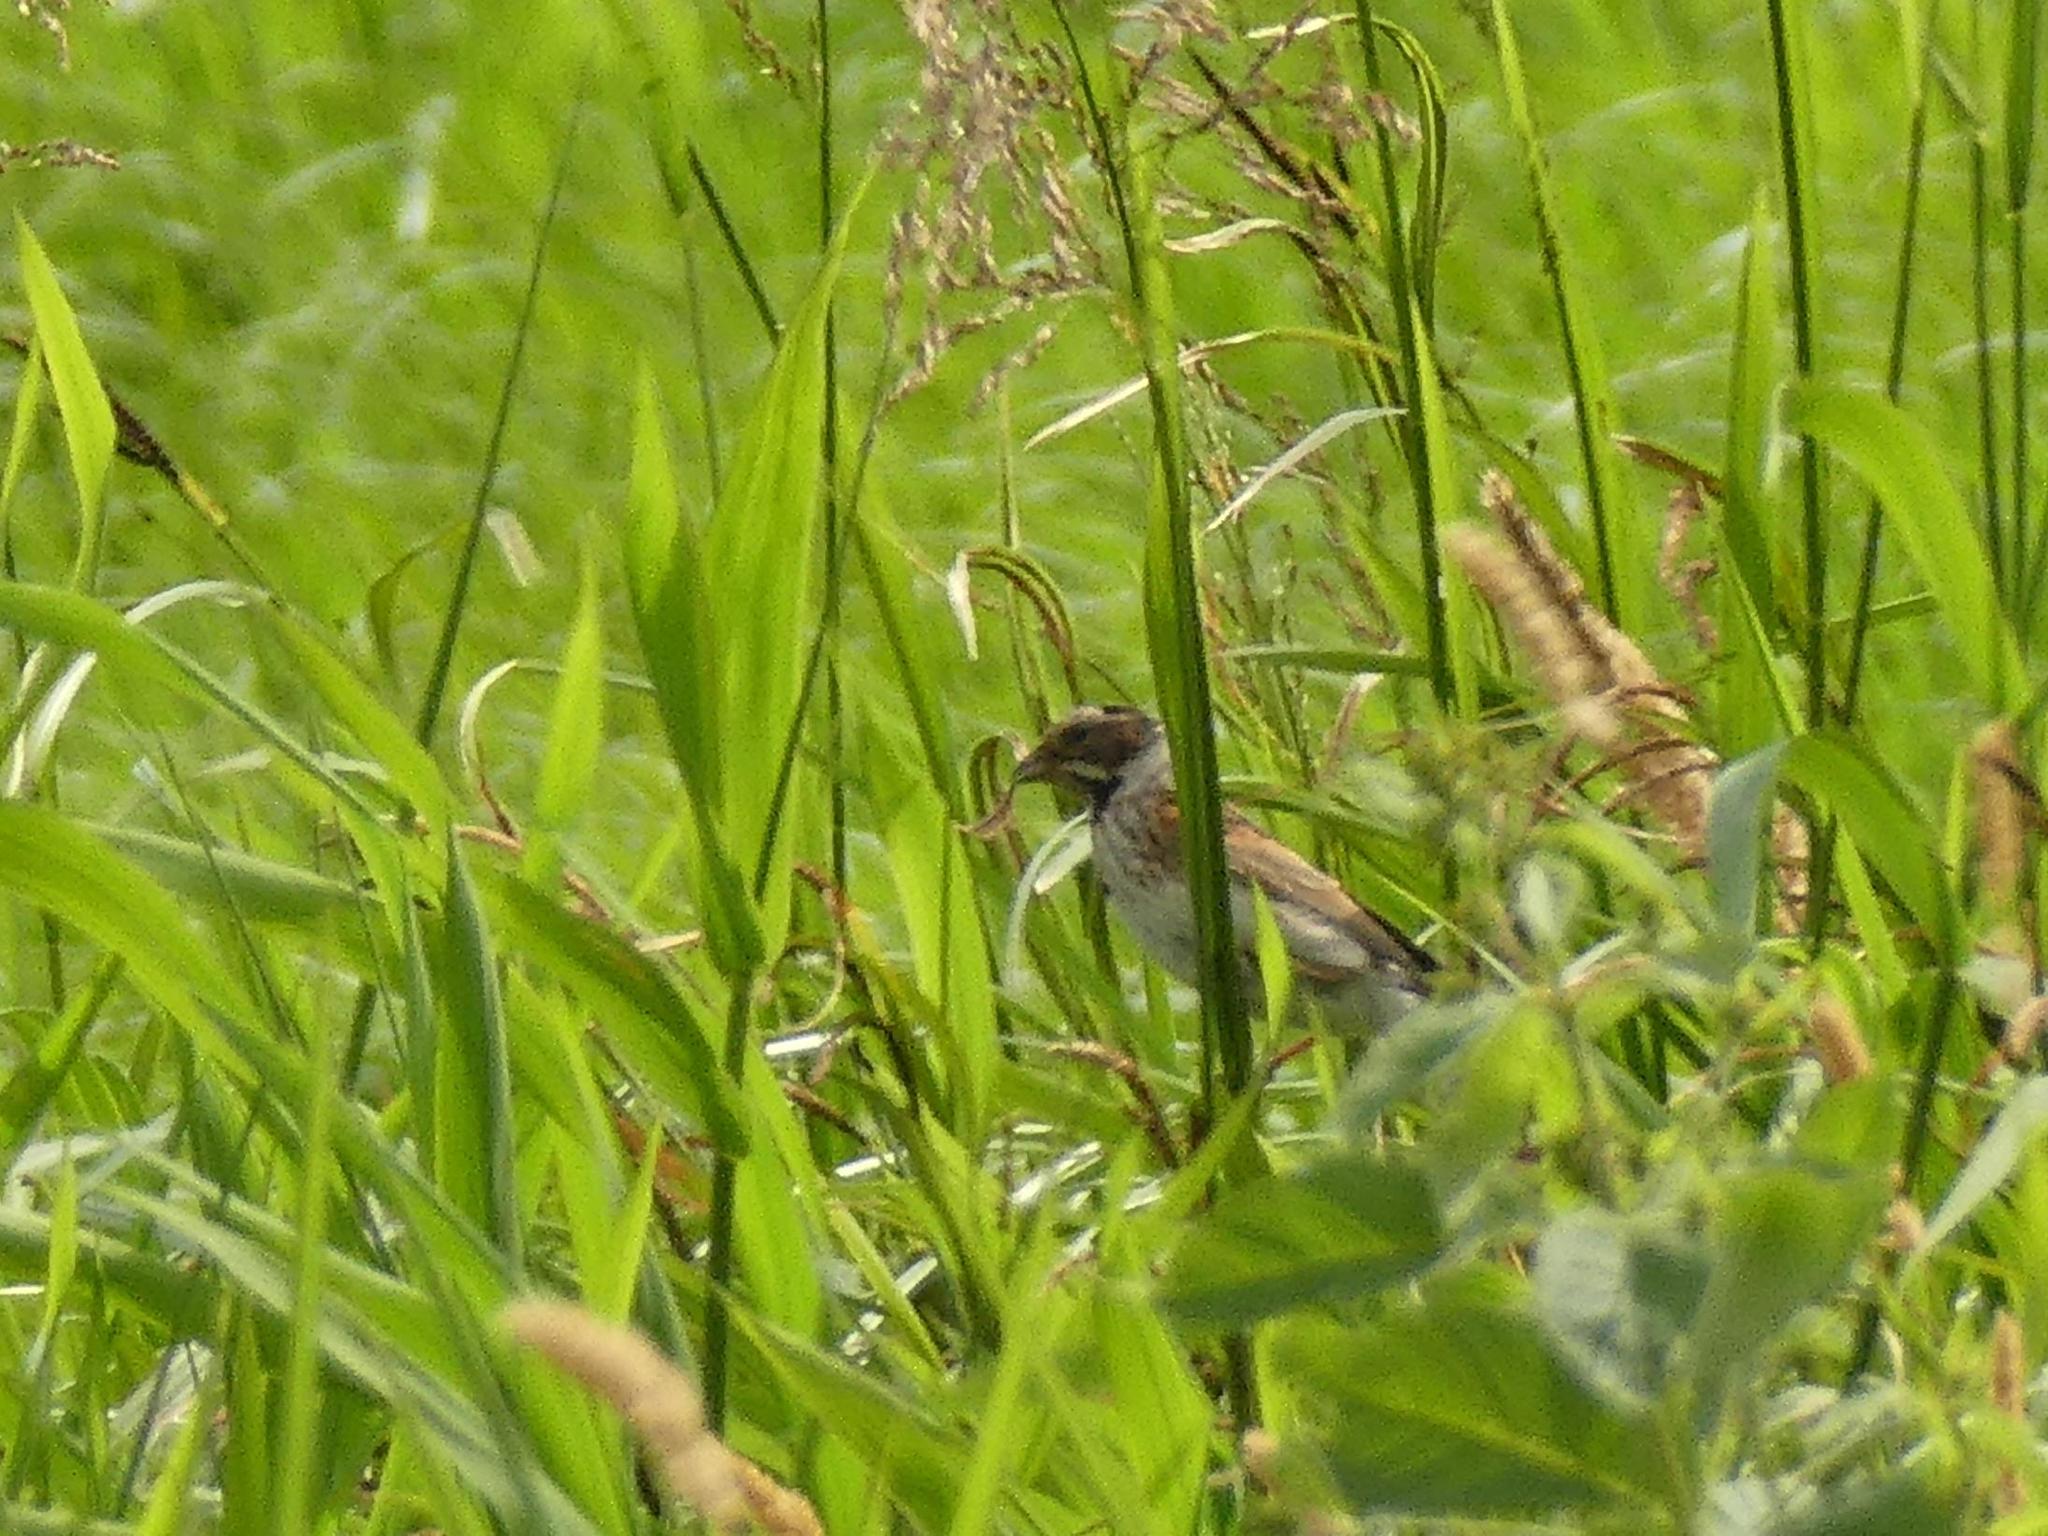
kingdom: Animalia
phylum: Chordata
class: Aves
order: Passeriformes
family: Emberizidae
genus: Emberiza
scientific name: Emberiza schoeniclus
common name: Reed bunting
